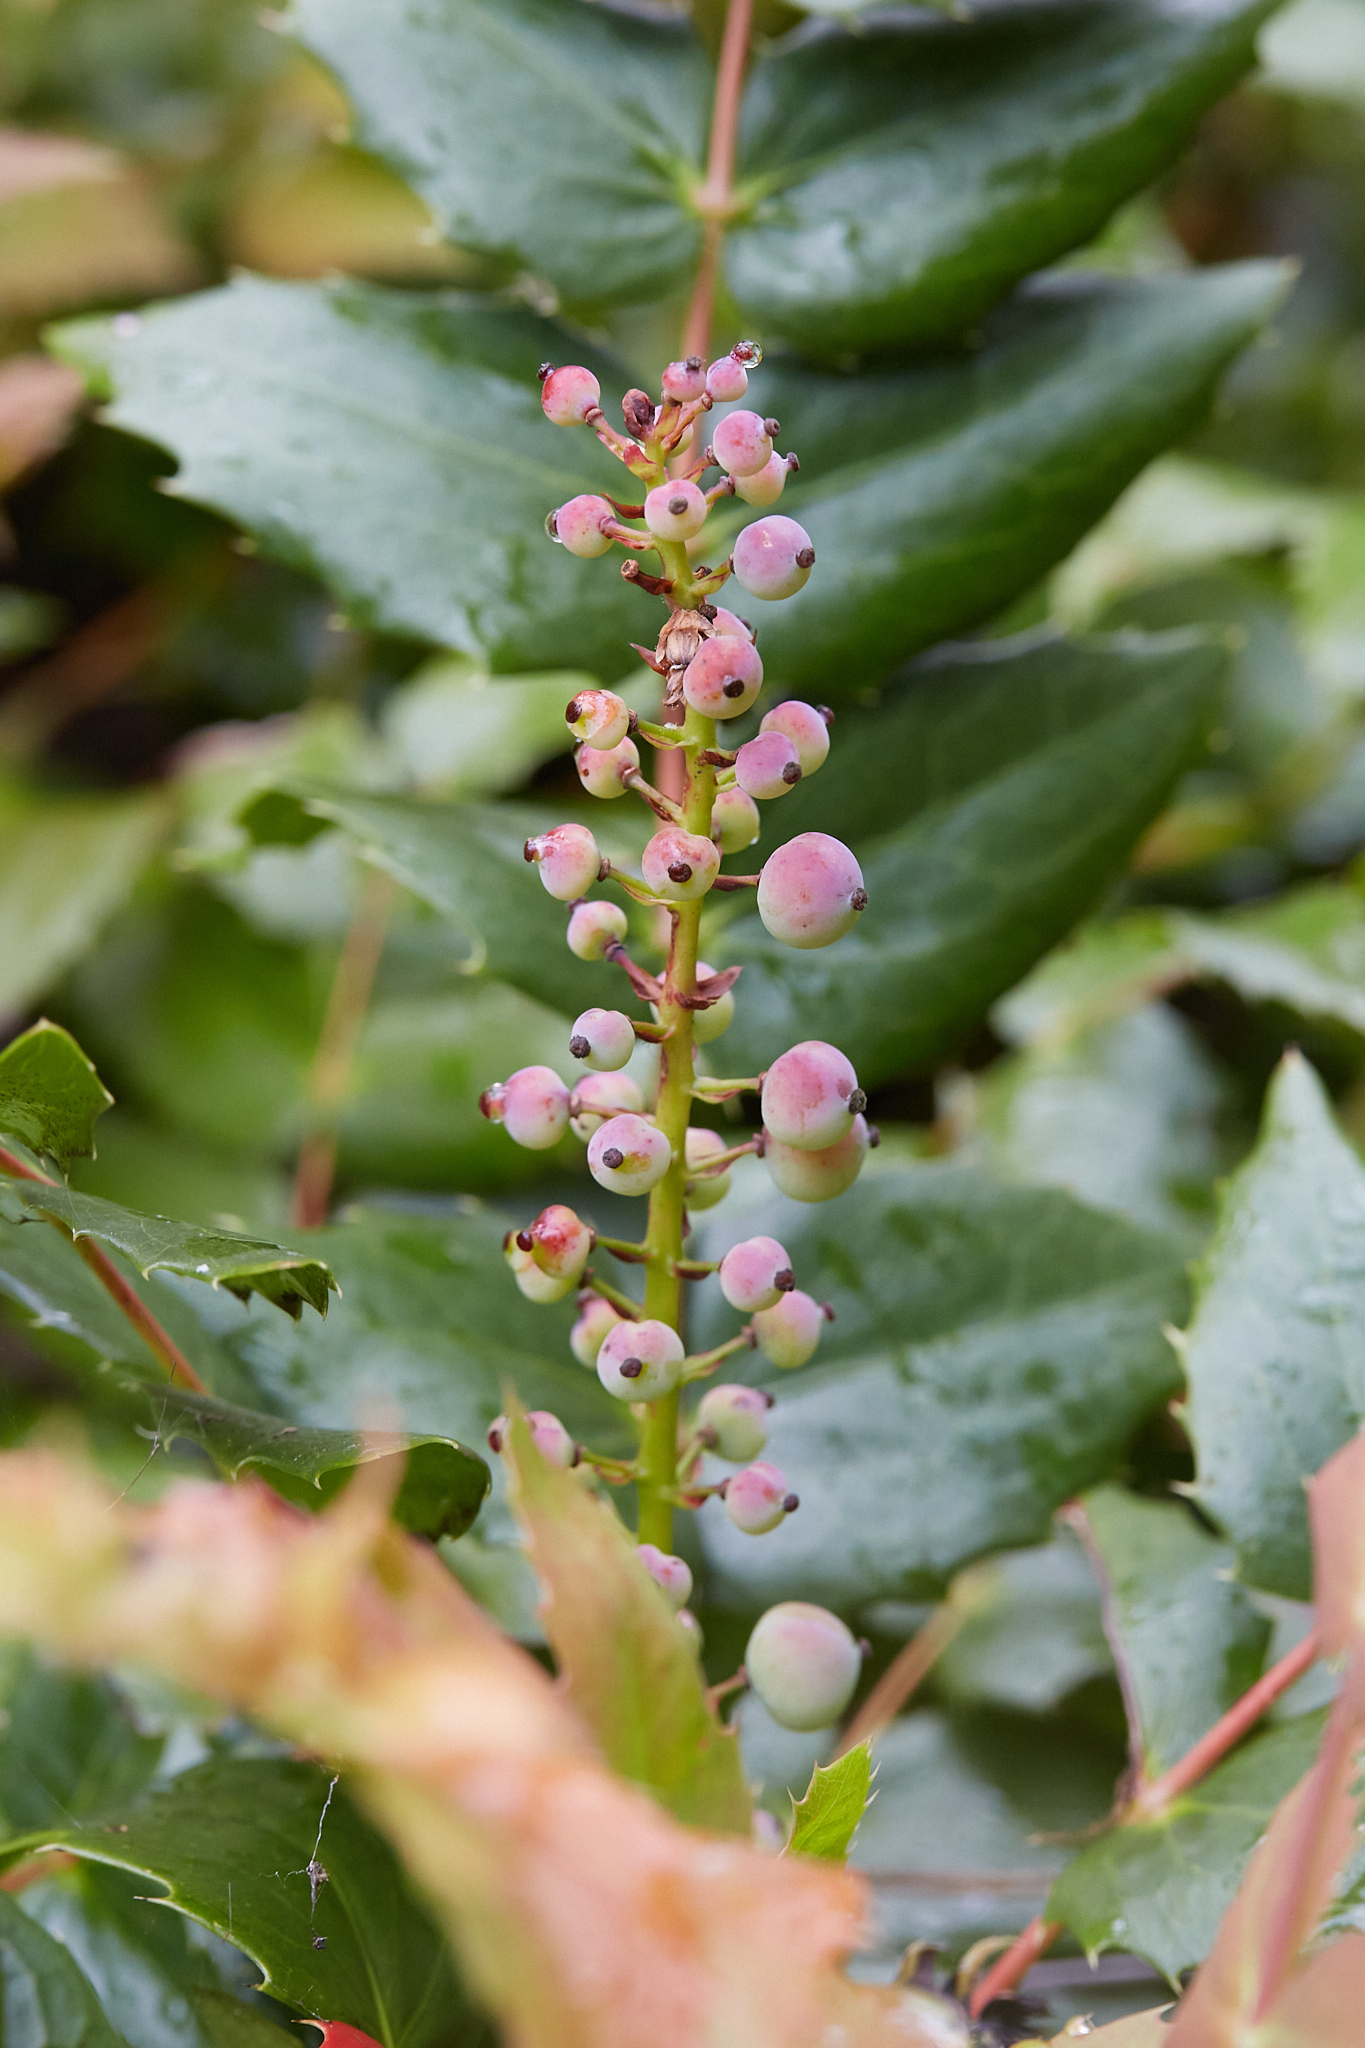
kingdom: Plantae
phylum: Tracheophyta
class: Magnoliopsida
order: Ranunculales
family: Berberidaceae
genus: Mahonia
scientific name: Mahonia nervosa
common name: Cascade oregon-grape
